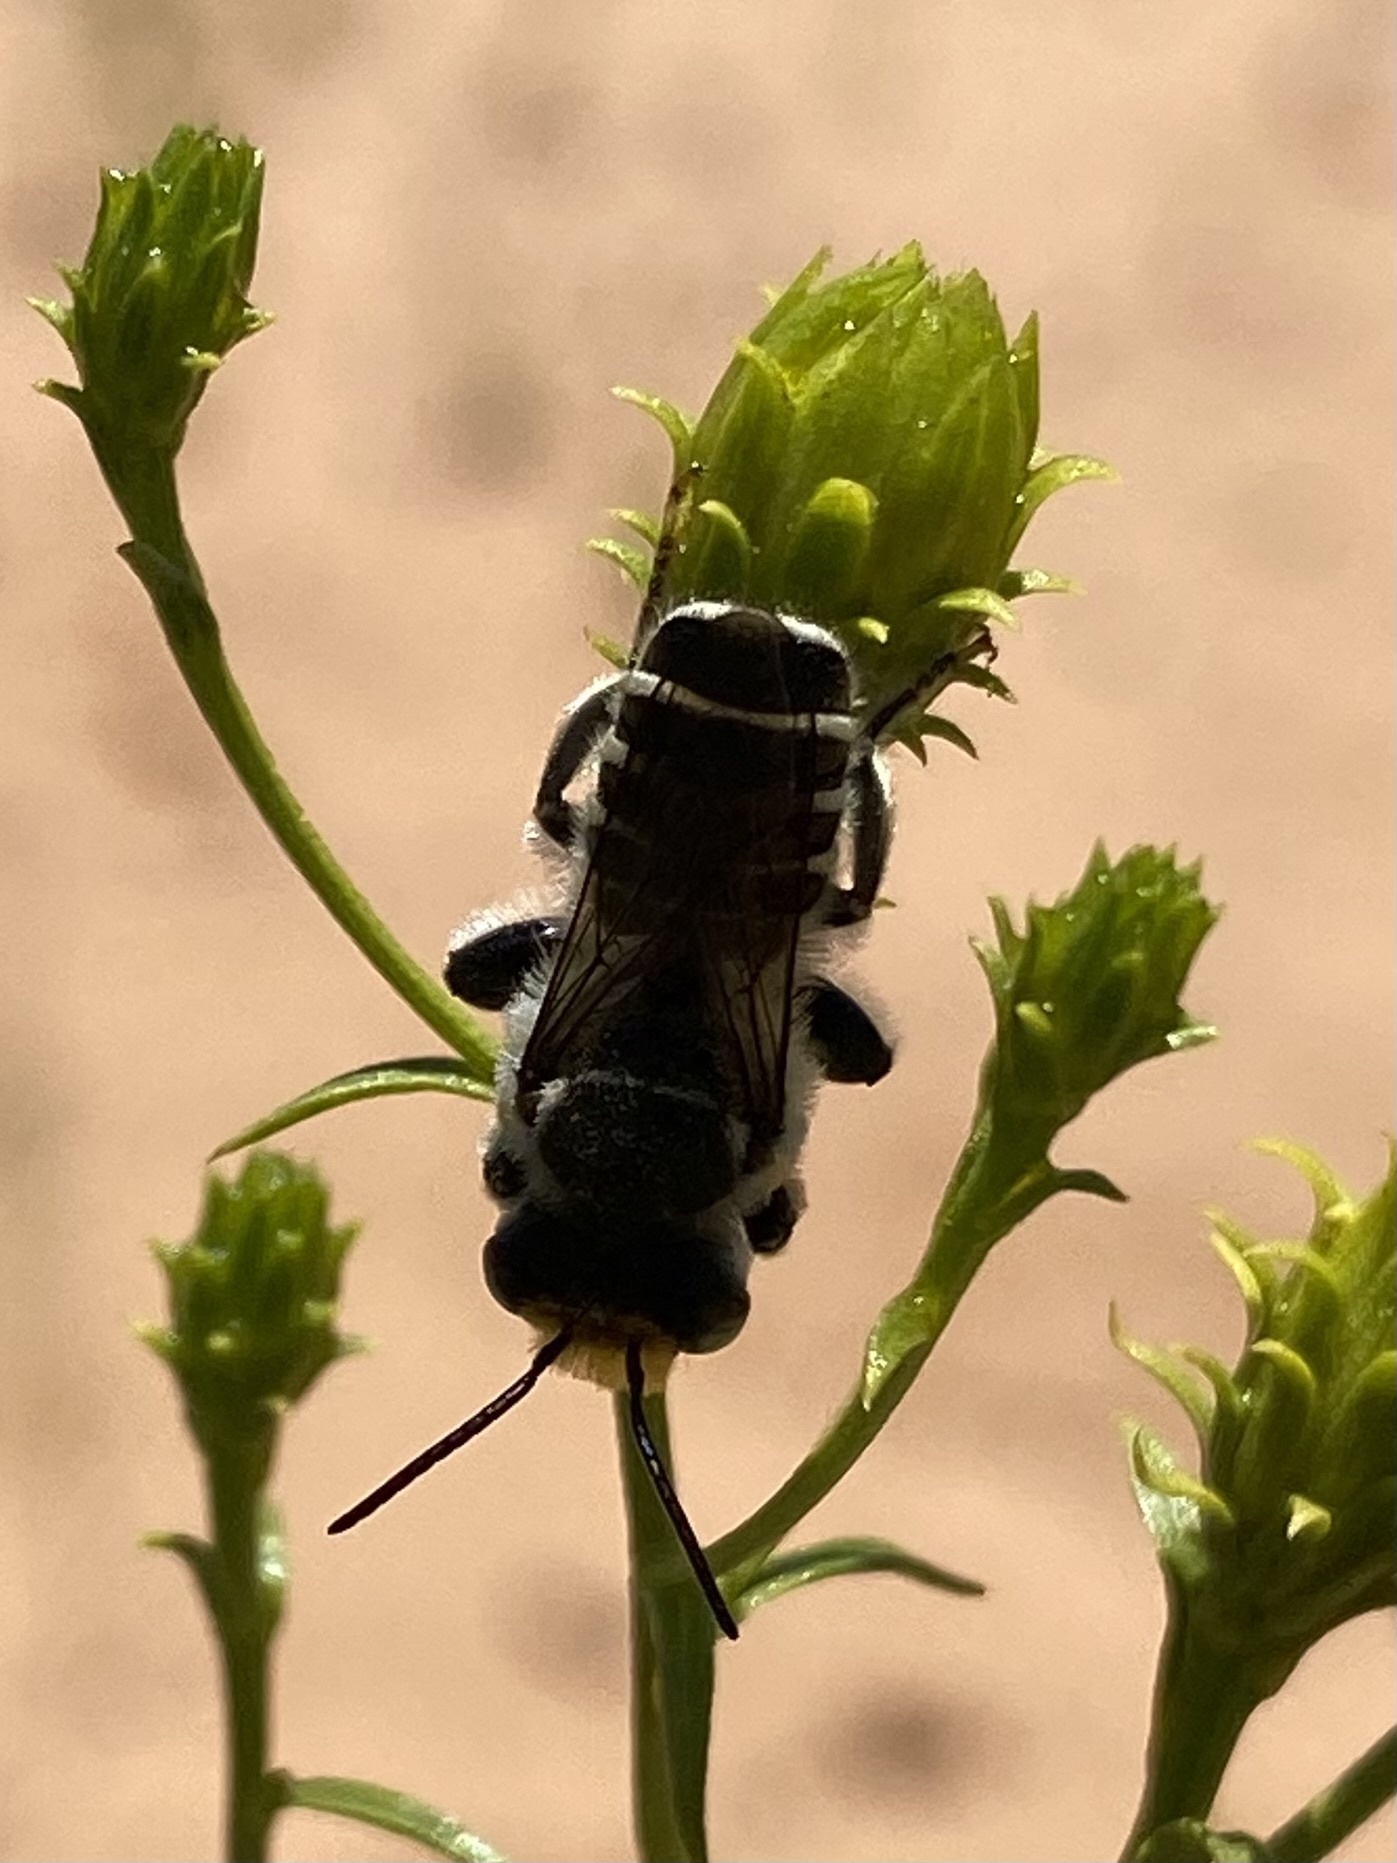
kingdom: Animalia
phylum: Arthropoda
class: Insecta
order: Hymenoptera
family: Megachilidae
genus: Megachile
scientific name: Megachile
